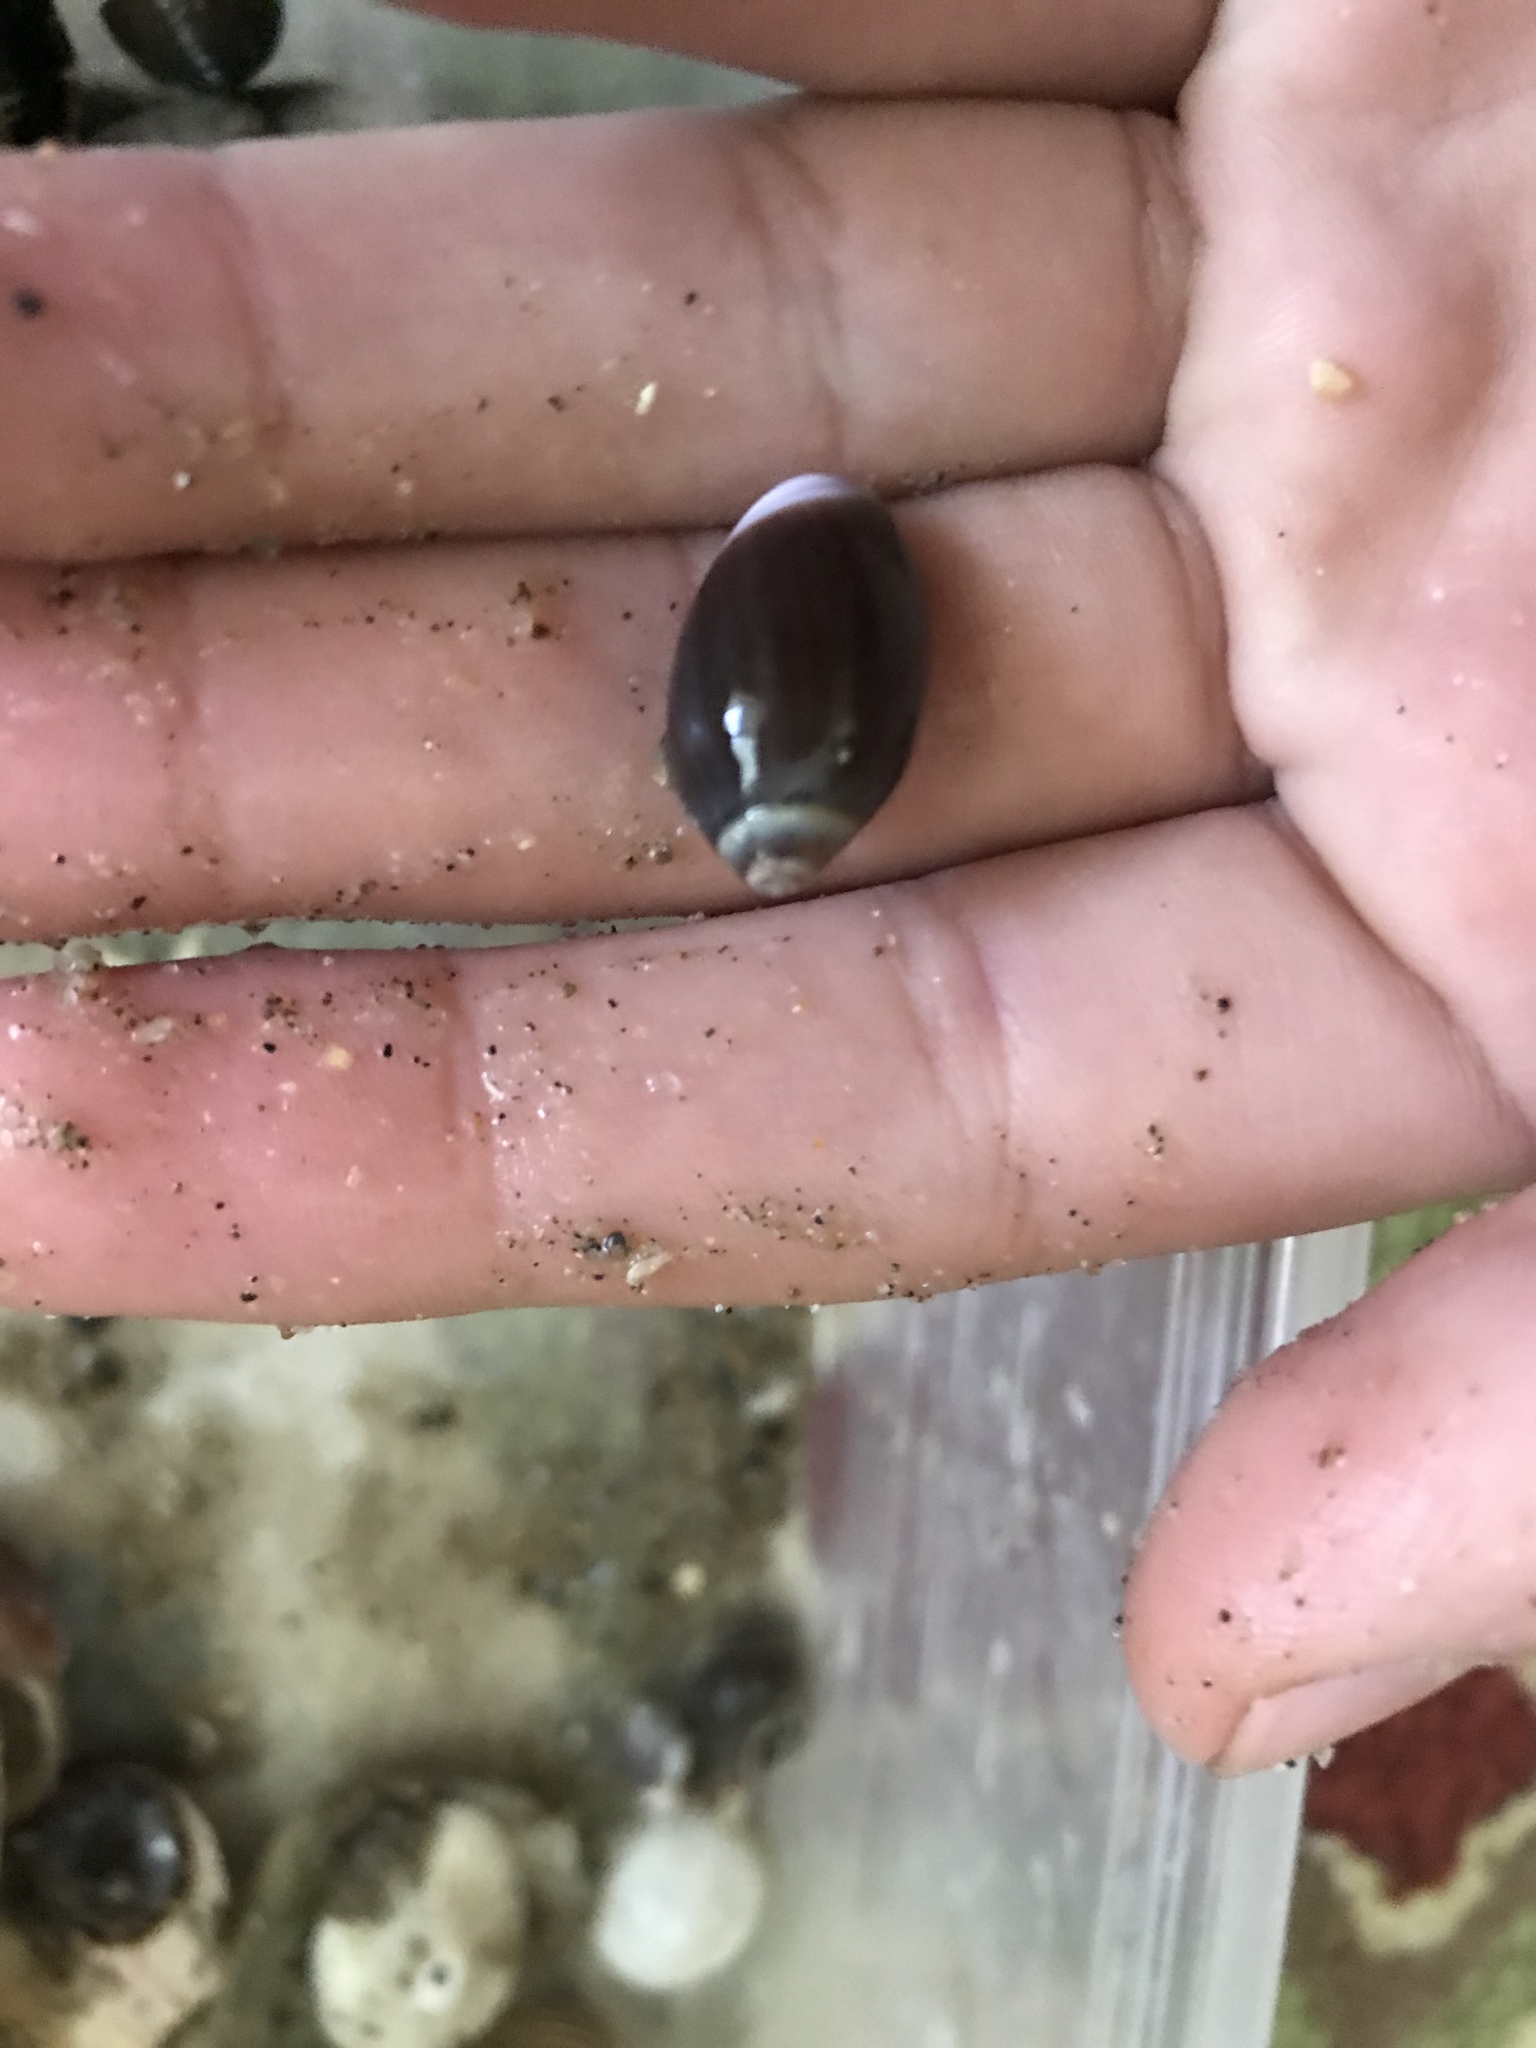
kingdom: Animalia
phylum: Mollusca
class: Gastropoda
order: Neogastropoda
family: Olividae
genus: Callianax
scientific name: Callianax biplicata
